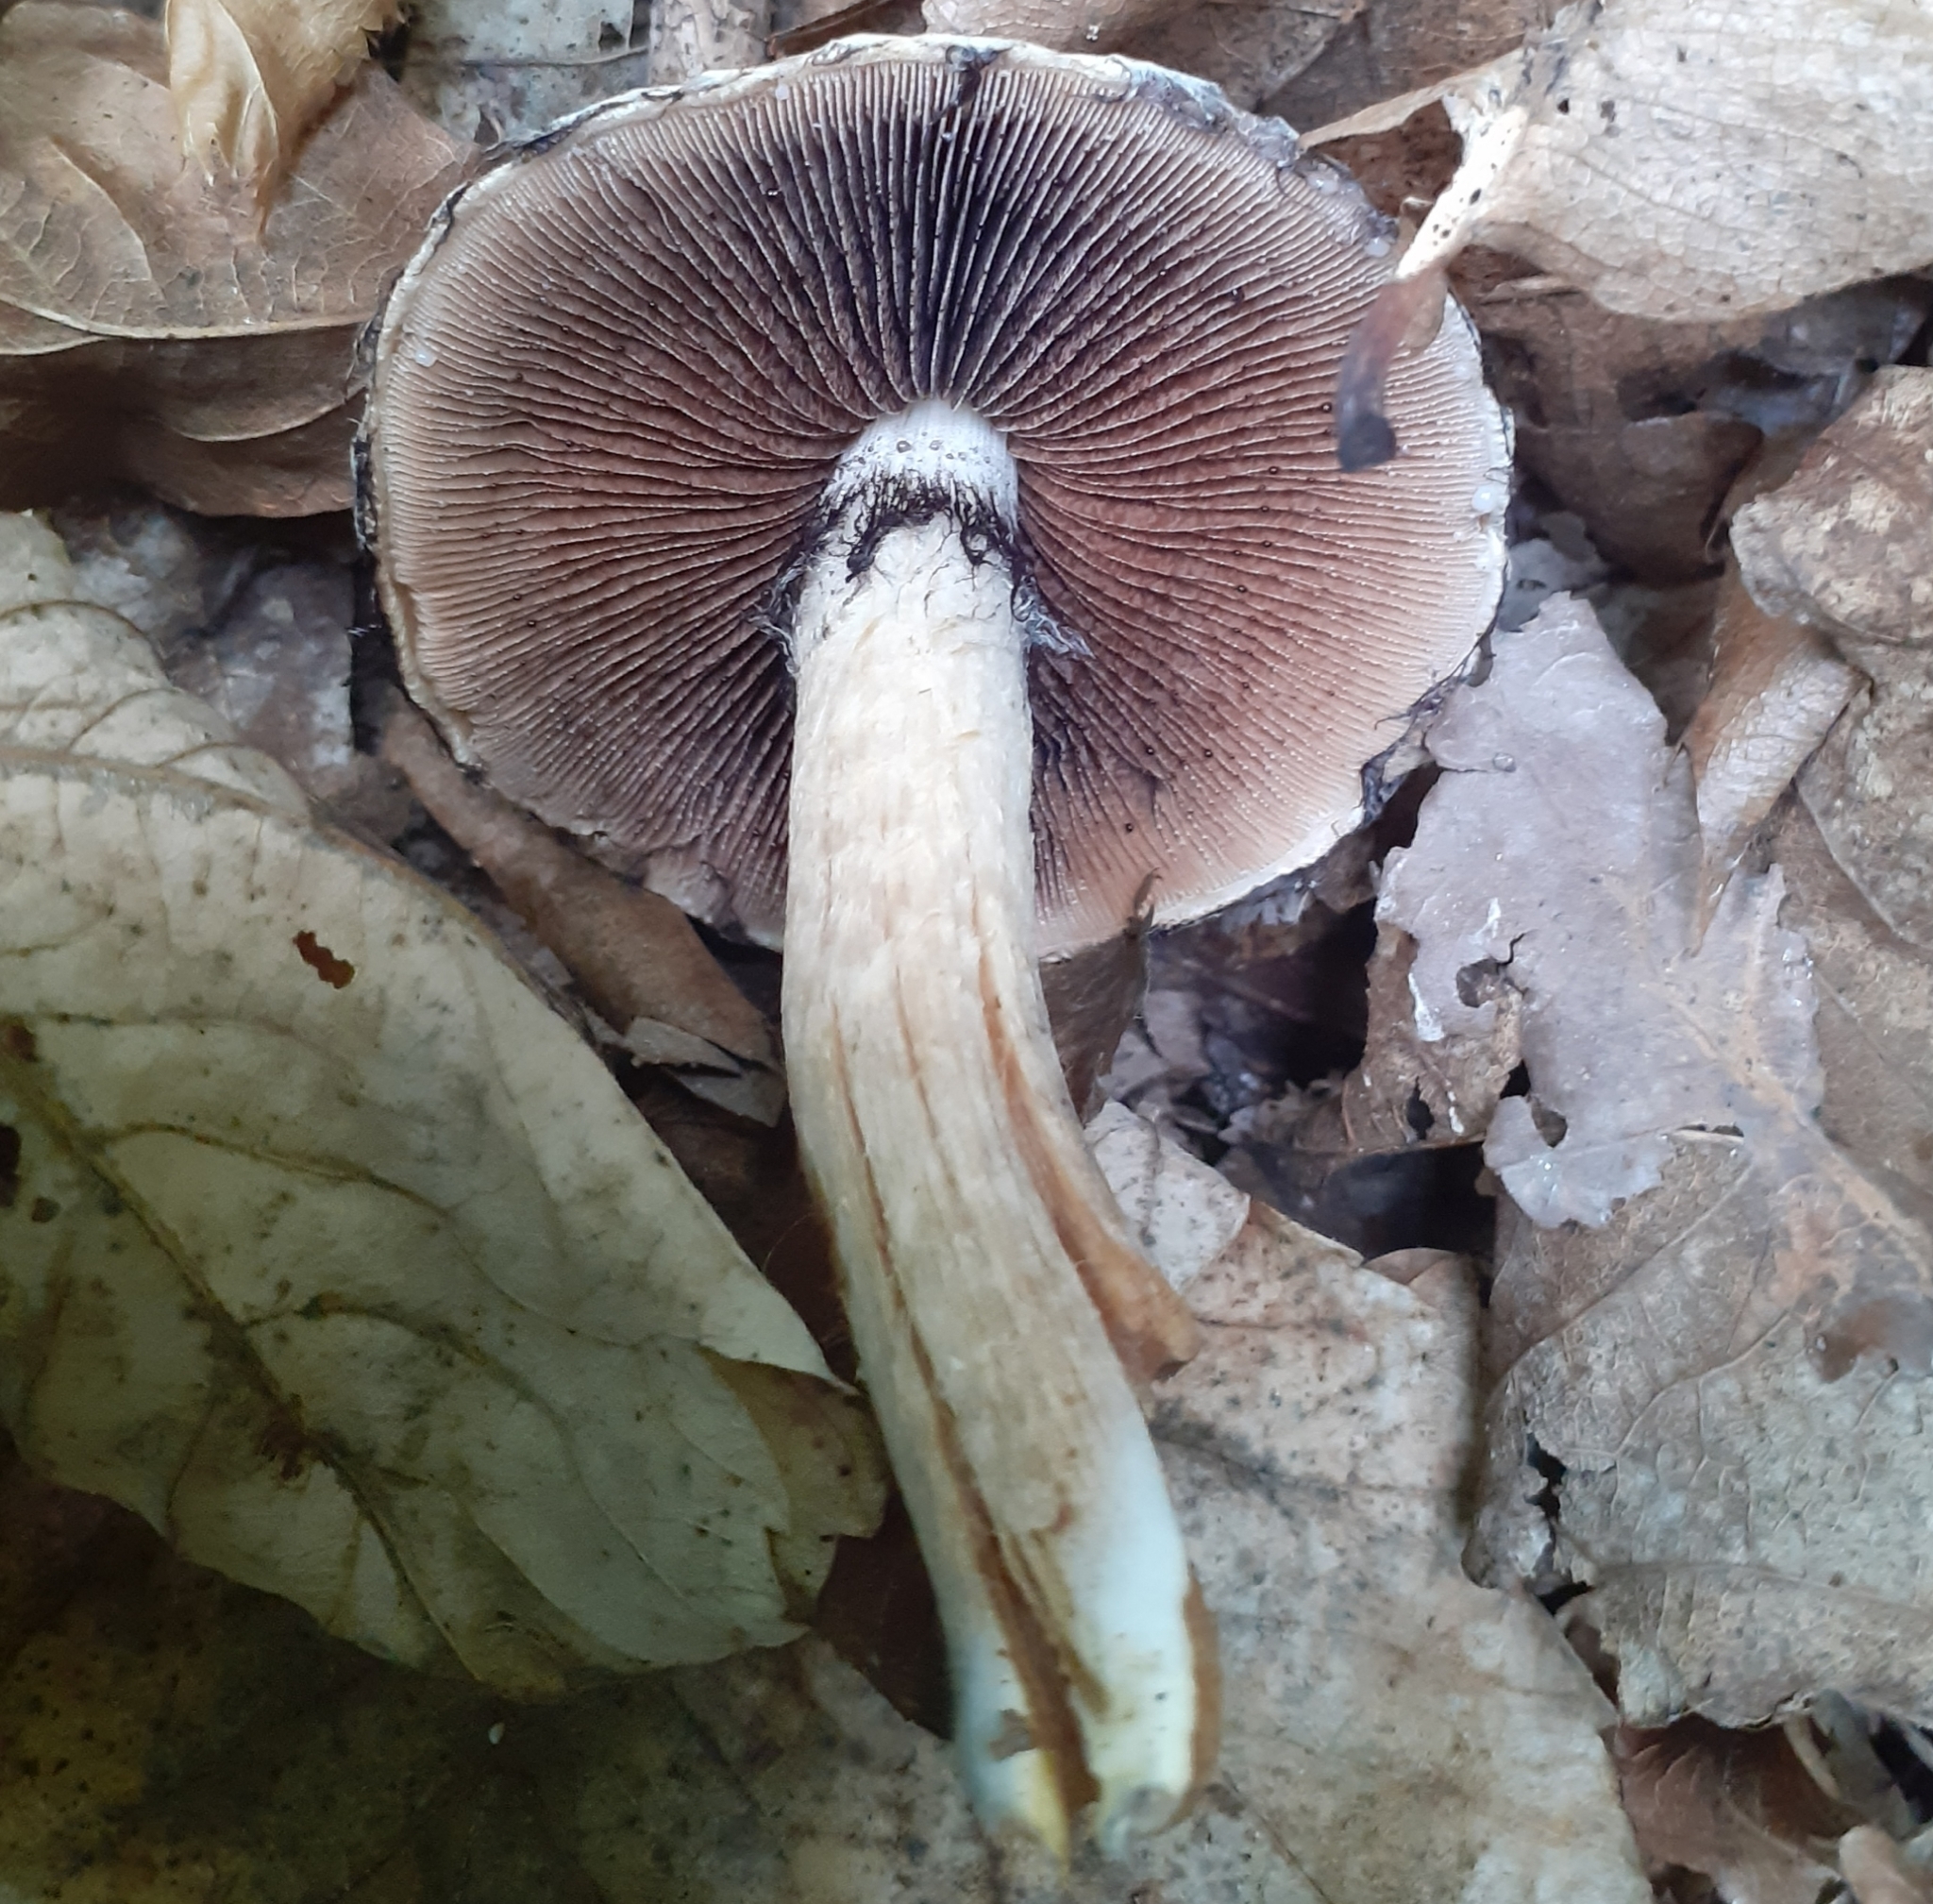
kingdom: Fungi
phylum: Basidiomycota
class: Agaricomycetes
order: Agaricales
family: Psathyrellaceae
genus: Lacrymaria
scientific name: Lacrymaria lacrymabunda
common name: Weeping widow
